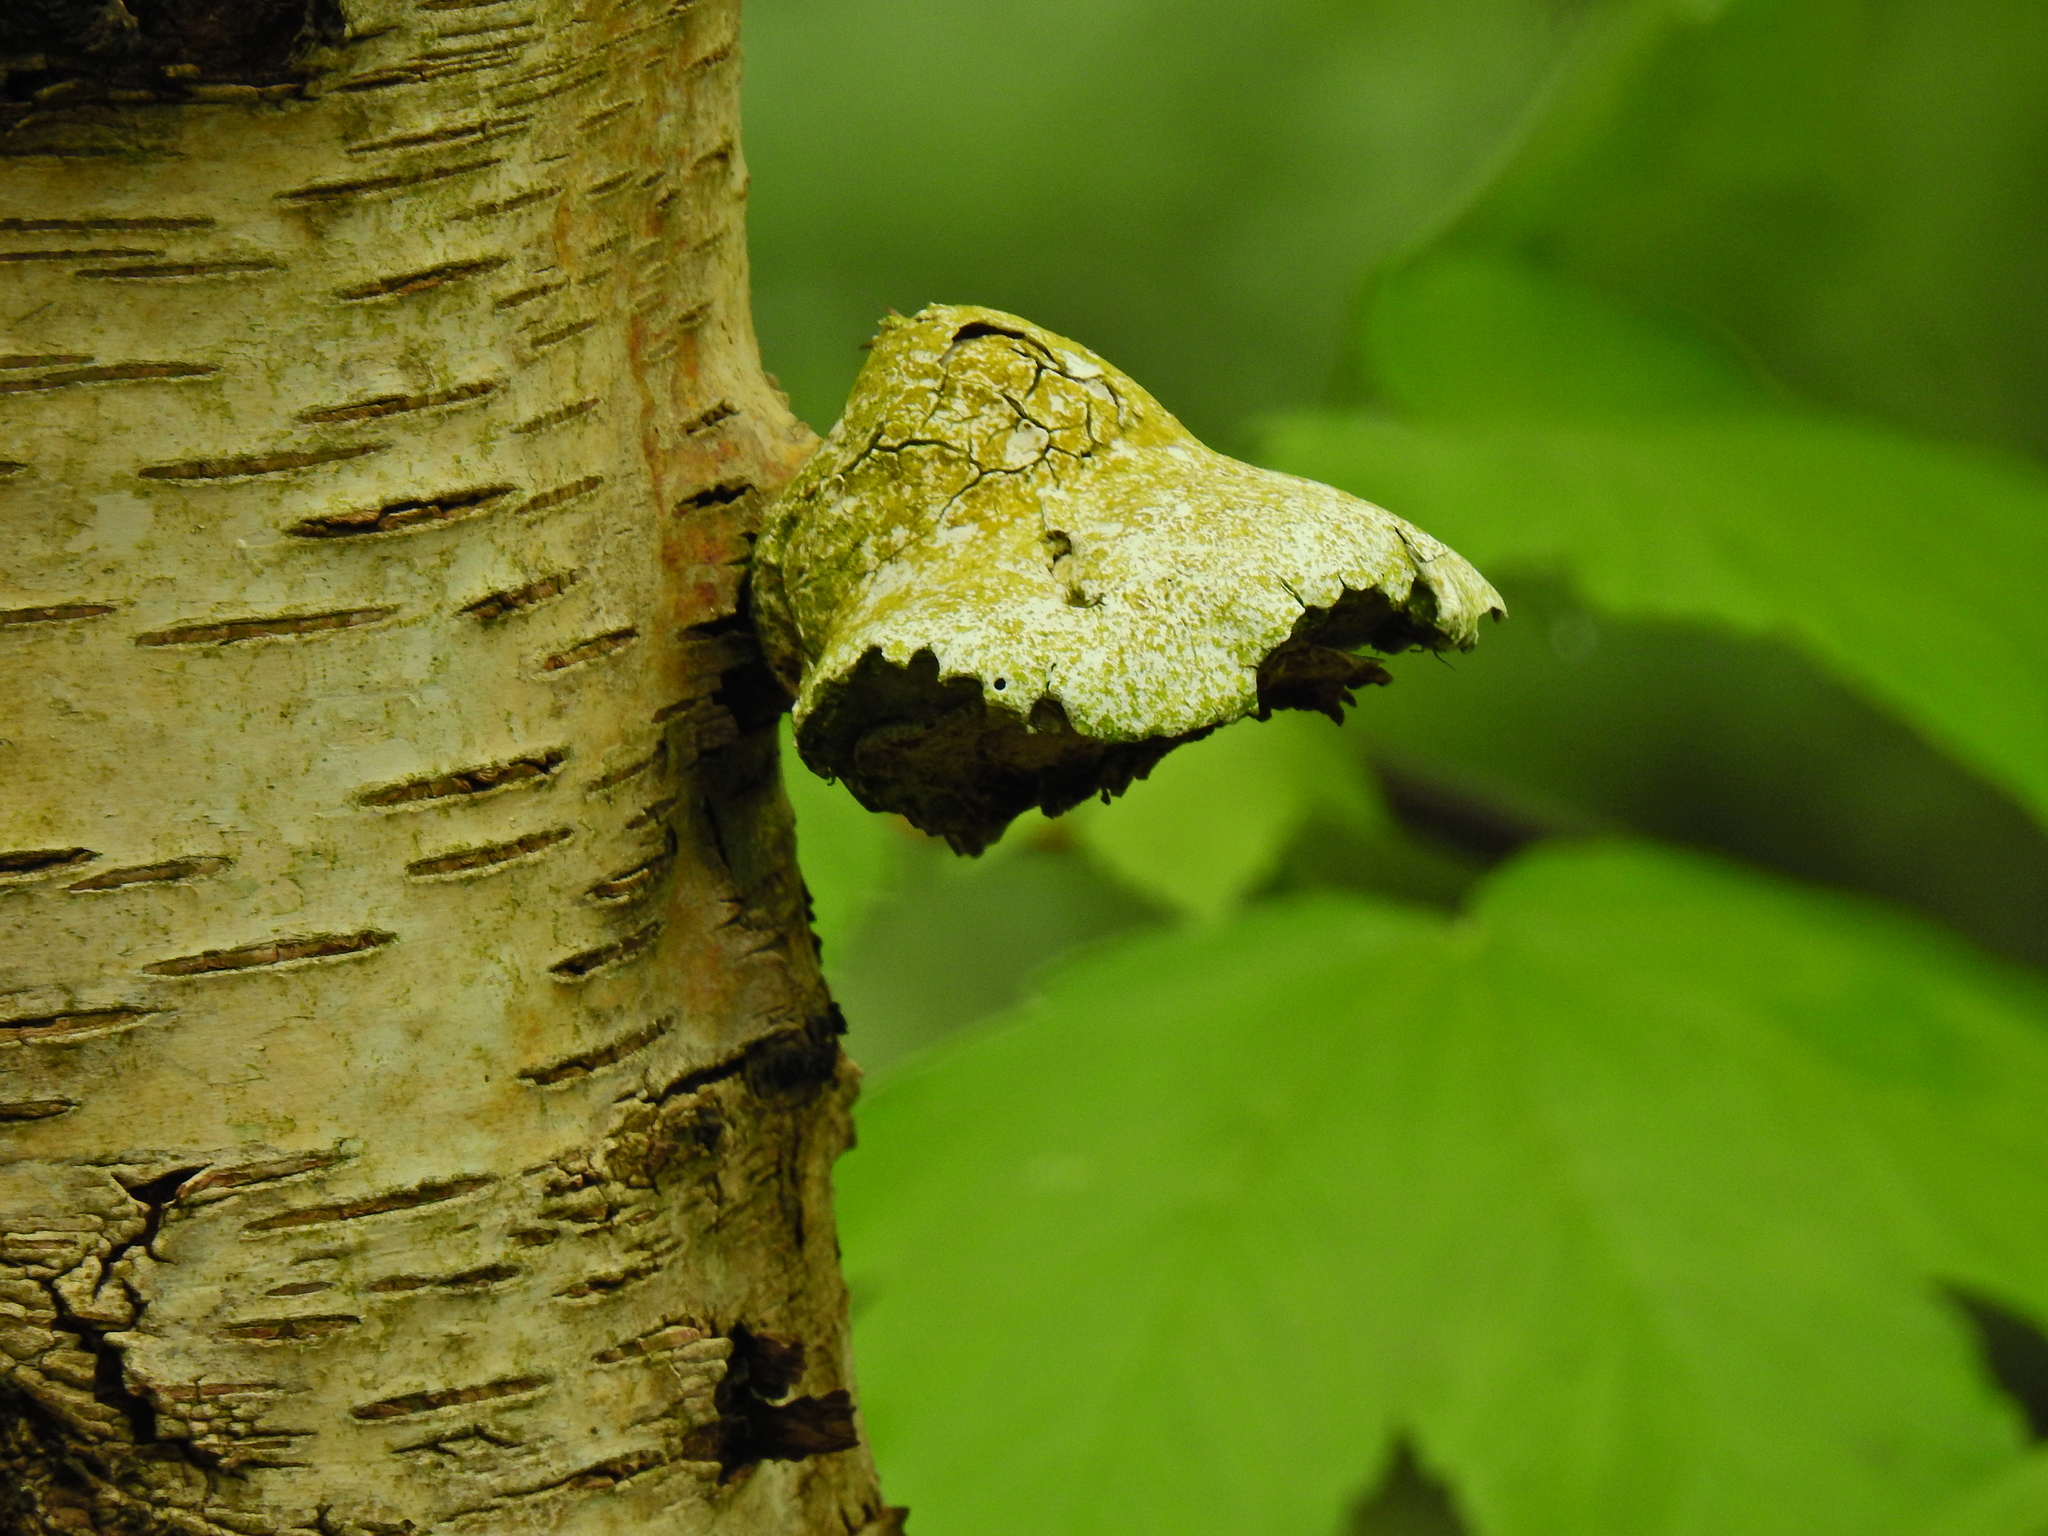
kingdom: Fungi
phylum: Basidiomycota
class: Agaricomycetes
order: Polyporales
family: Fomitopsidaceae
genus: Fomitopsis
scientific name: Fomitopsis betulina
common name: Birch polypore
